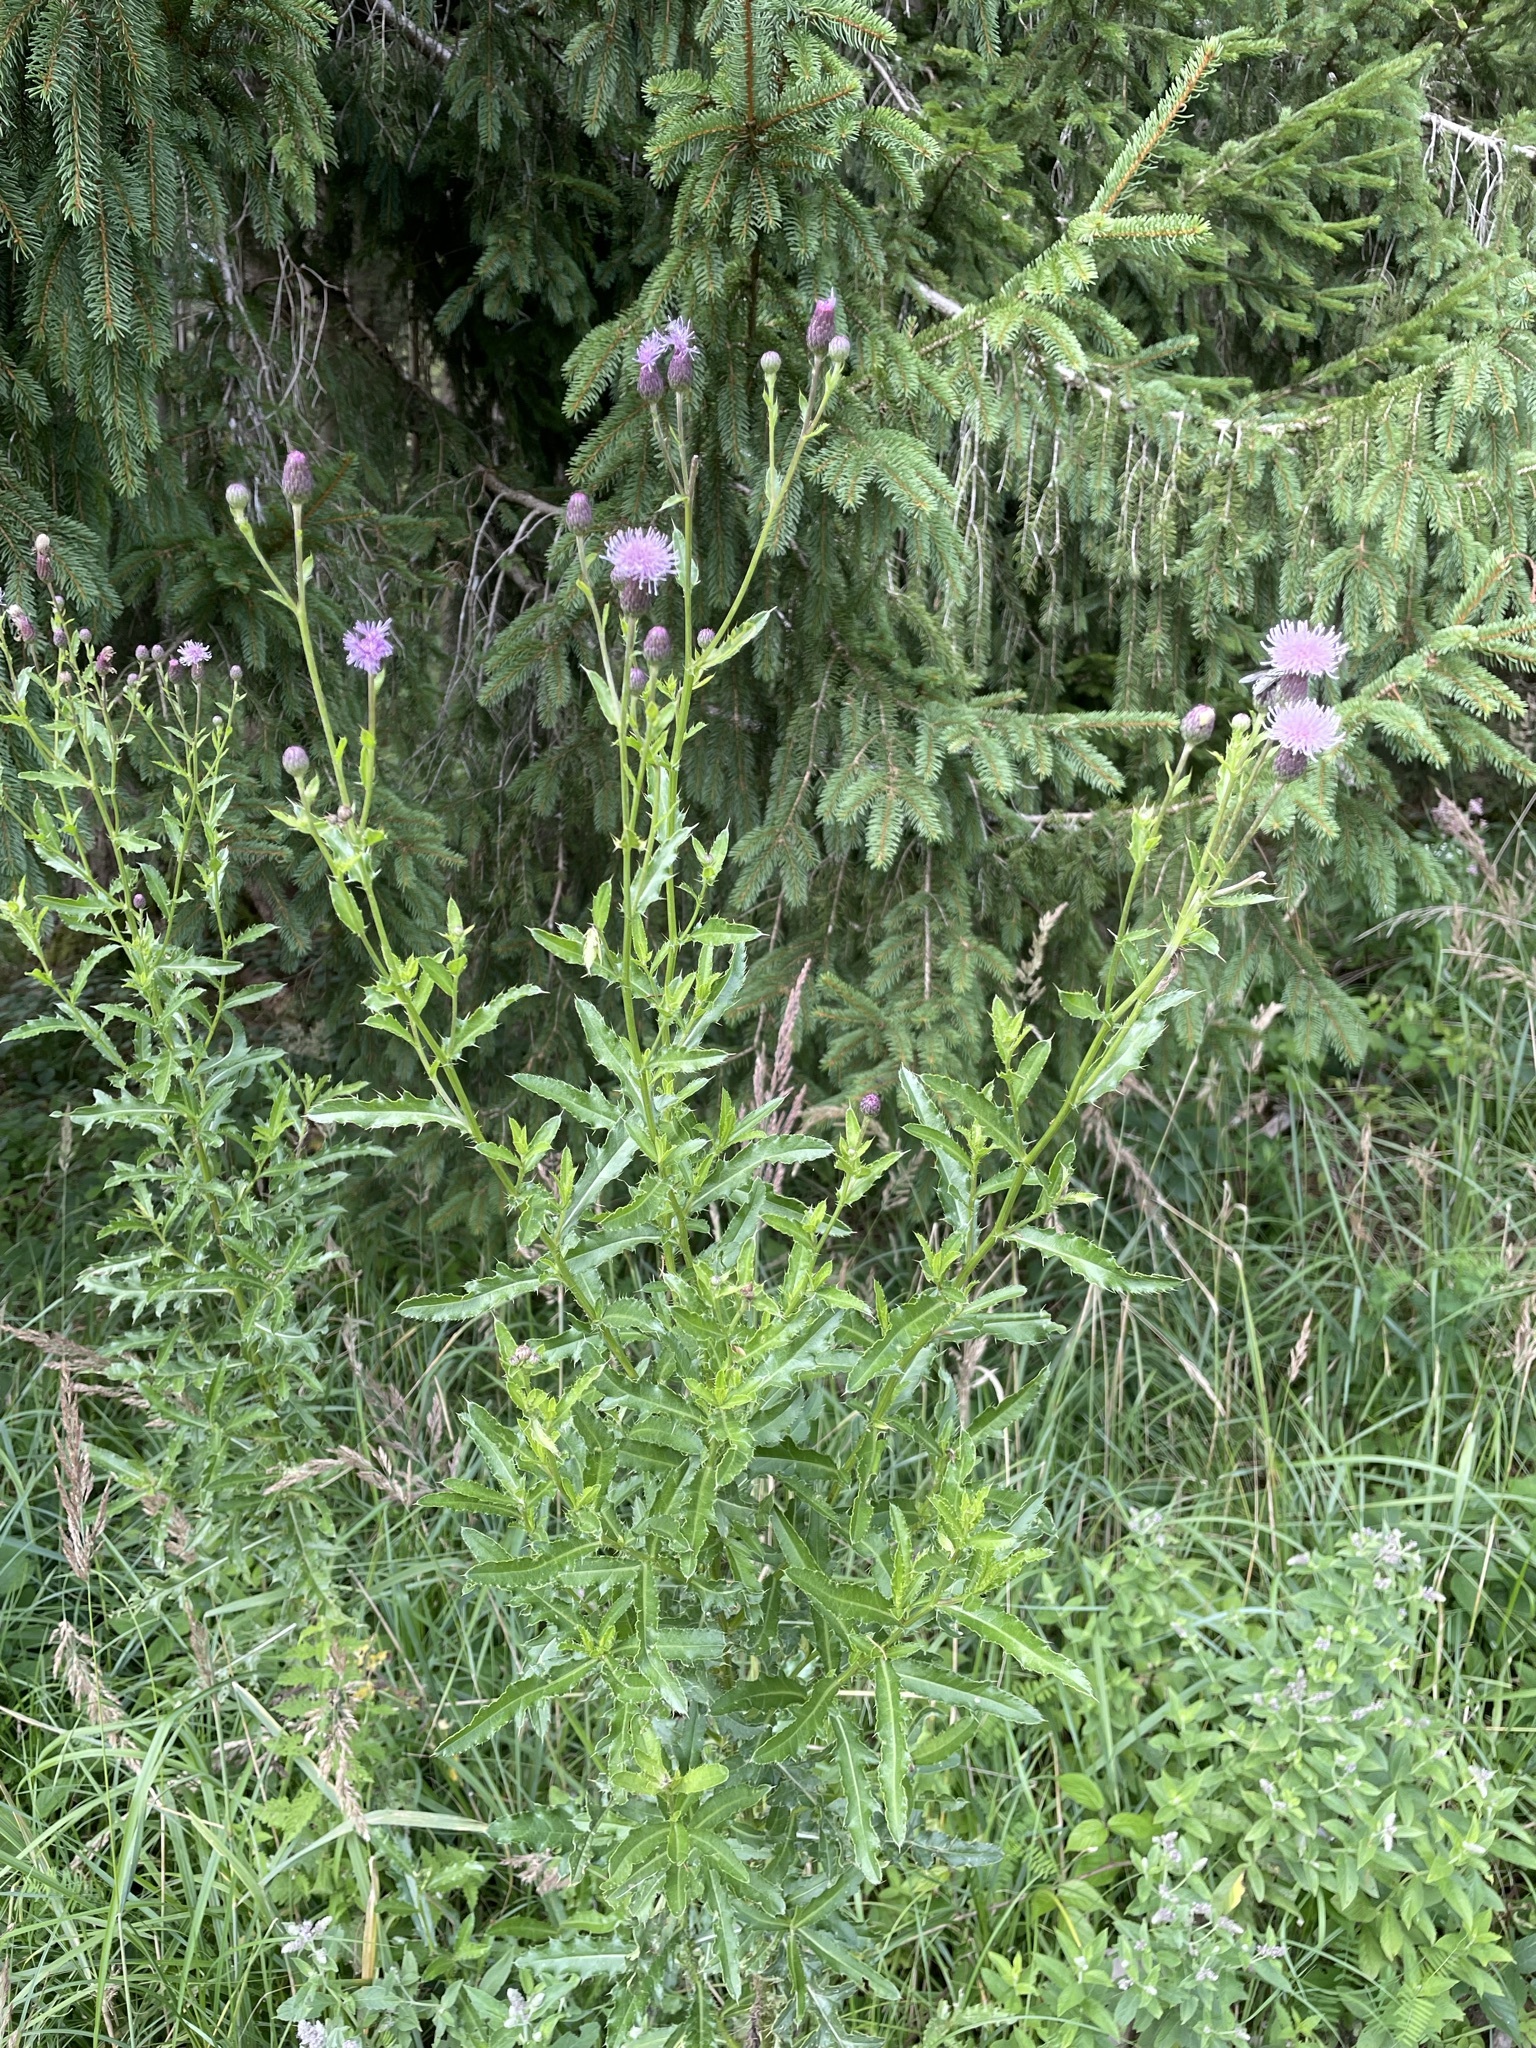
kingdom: Plantae
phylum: Tracheophyta
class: Magnoliopsida
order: Asterales
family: Asteraceae
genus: Cirsium
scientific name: Cirsium arvense
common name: Creeping thistle
